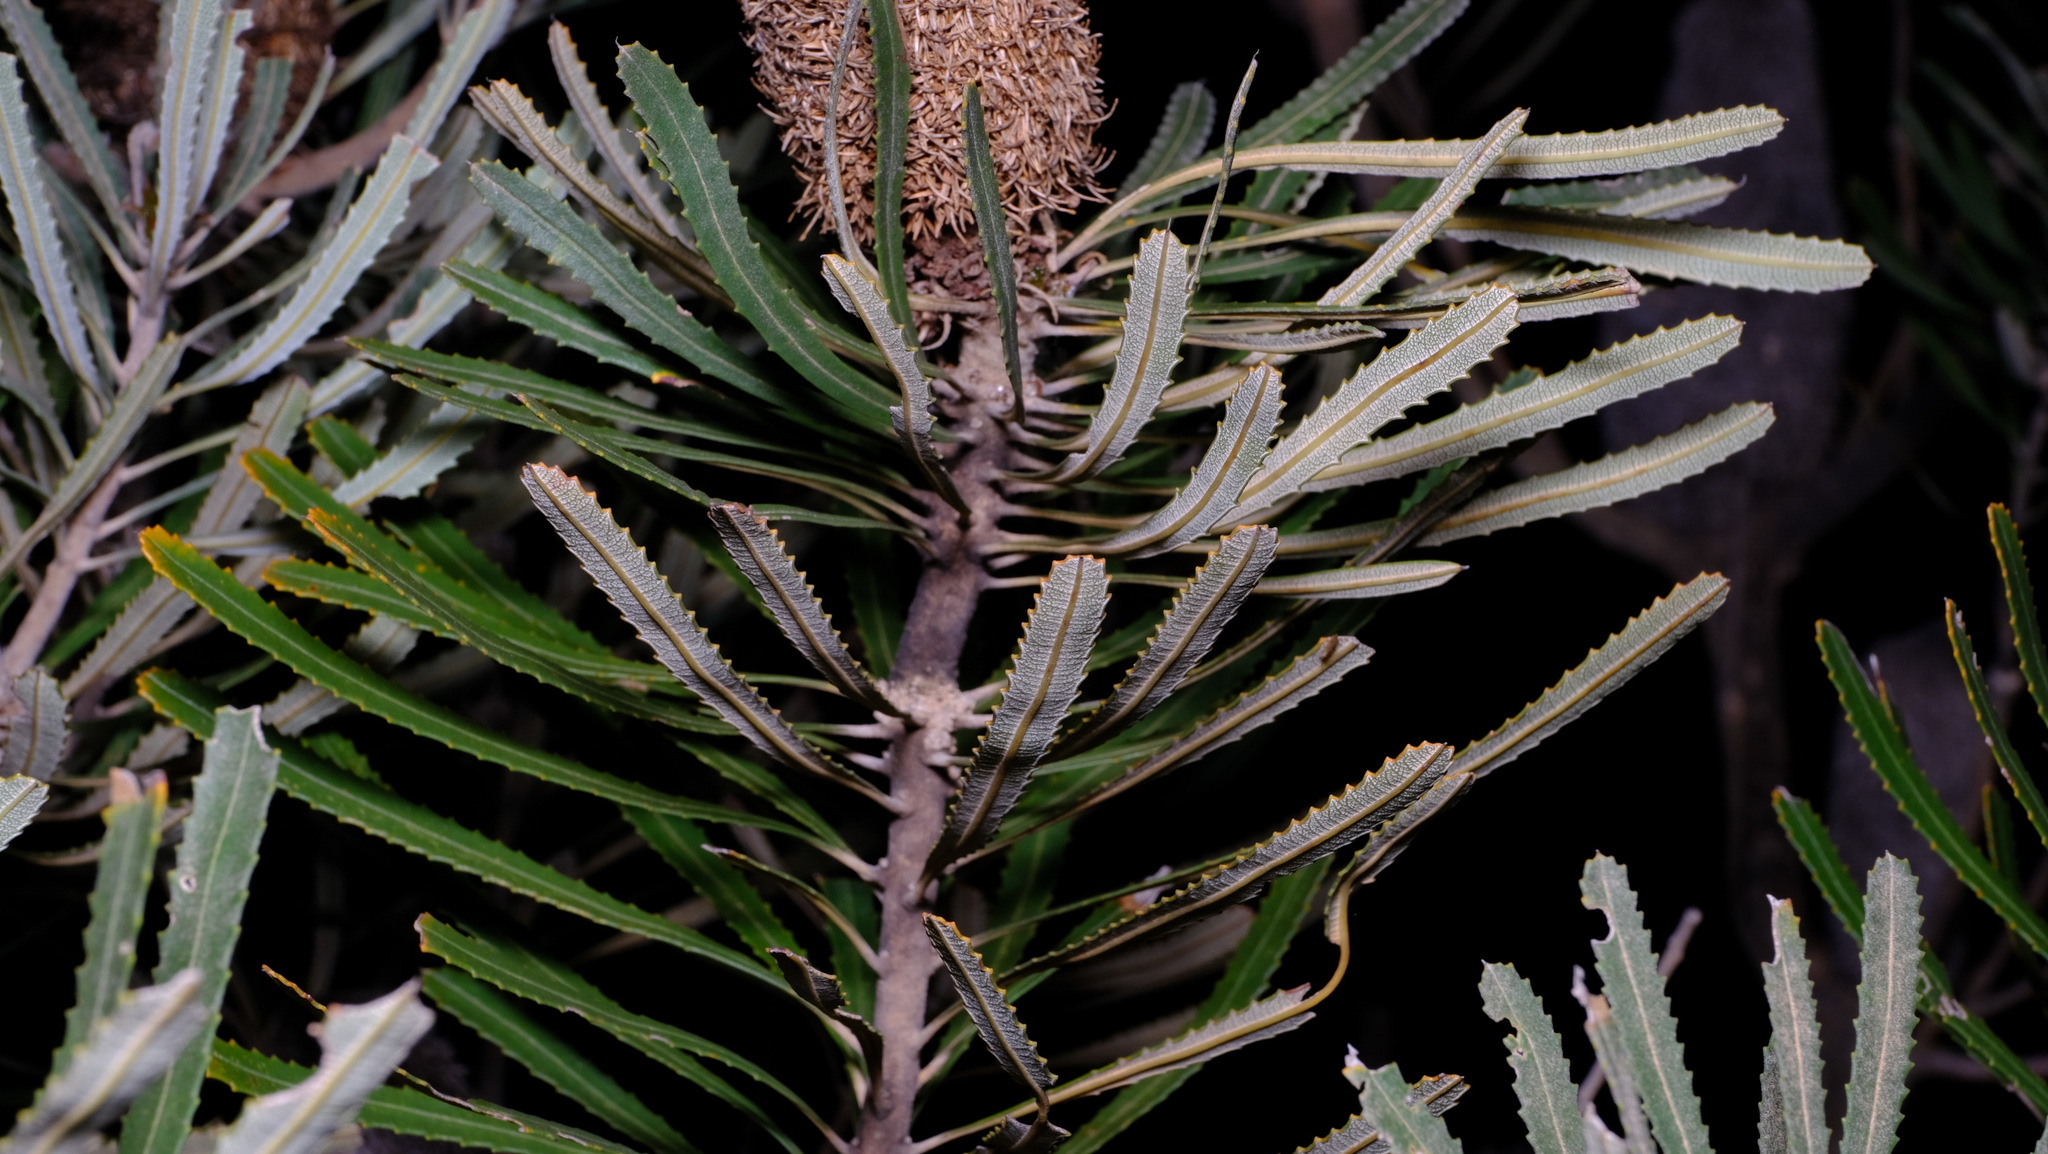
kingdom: Plantae
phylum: Tracheophyta
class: Magnoliopsida
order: Proteales
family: Proteaceae
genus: Banksia
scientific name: Banksia attenuata
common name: Coast banksia
